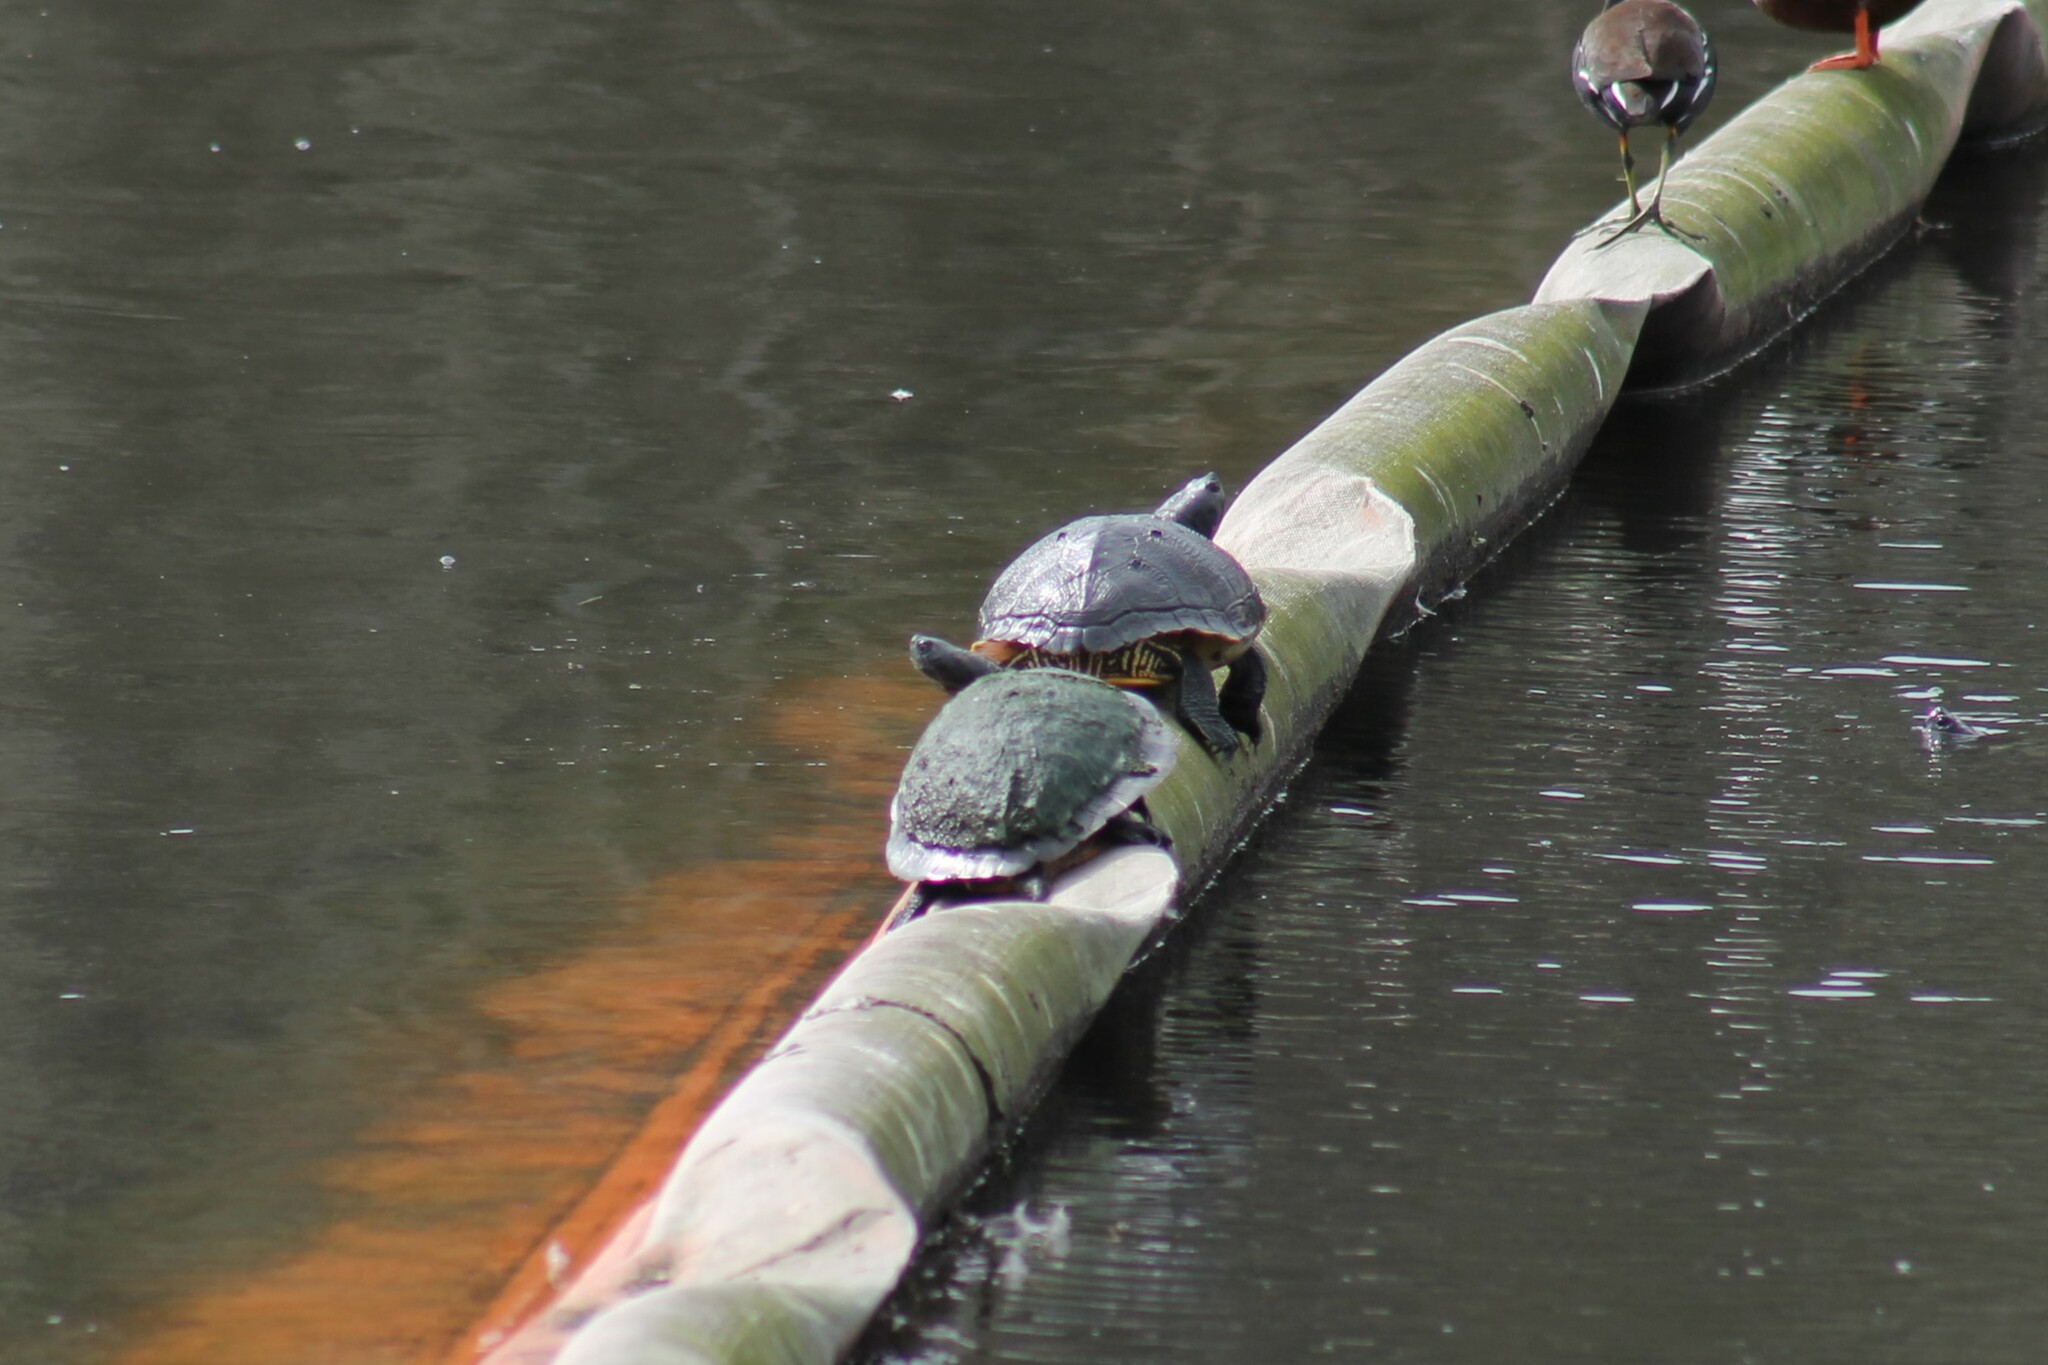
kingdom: Animalia
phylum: Chordata
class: Testudines
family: Emydidae
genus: Trachemys
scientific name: Trachemys scripta
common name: Slider
